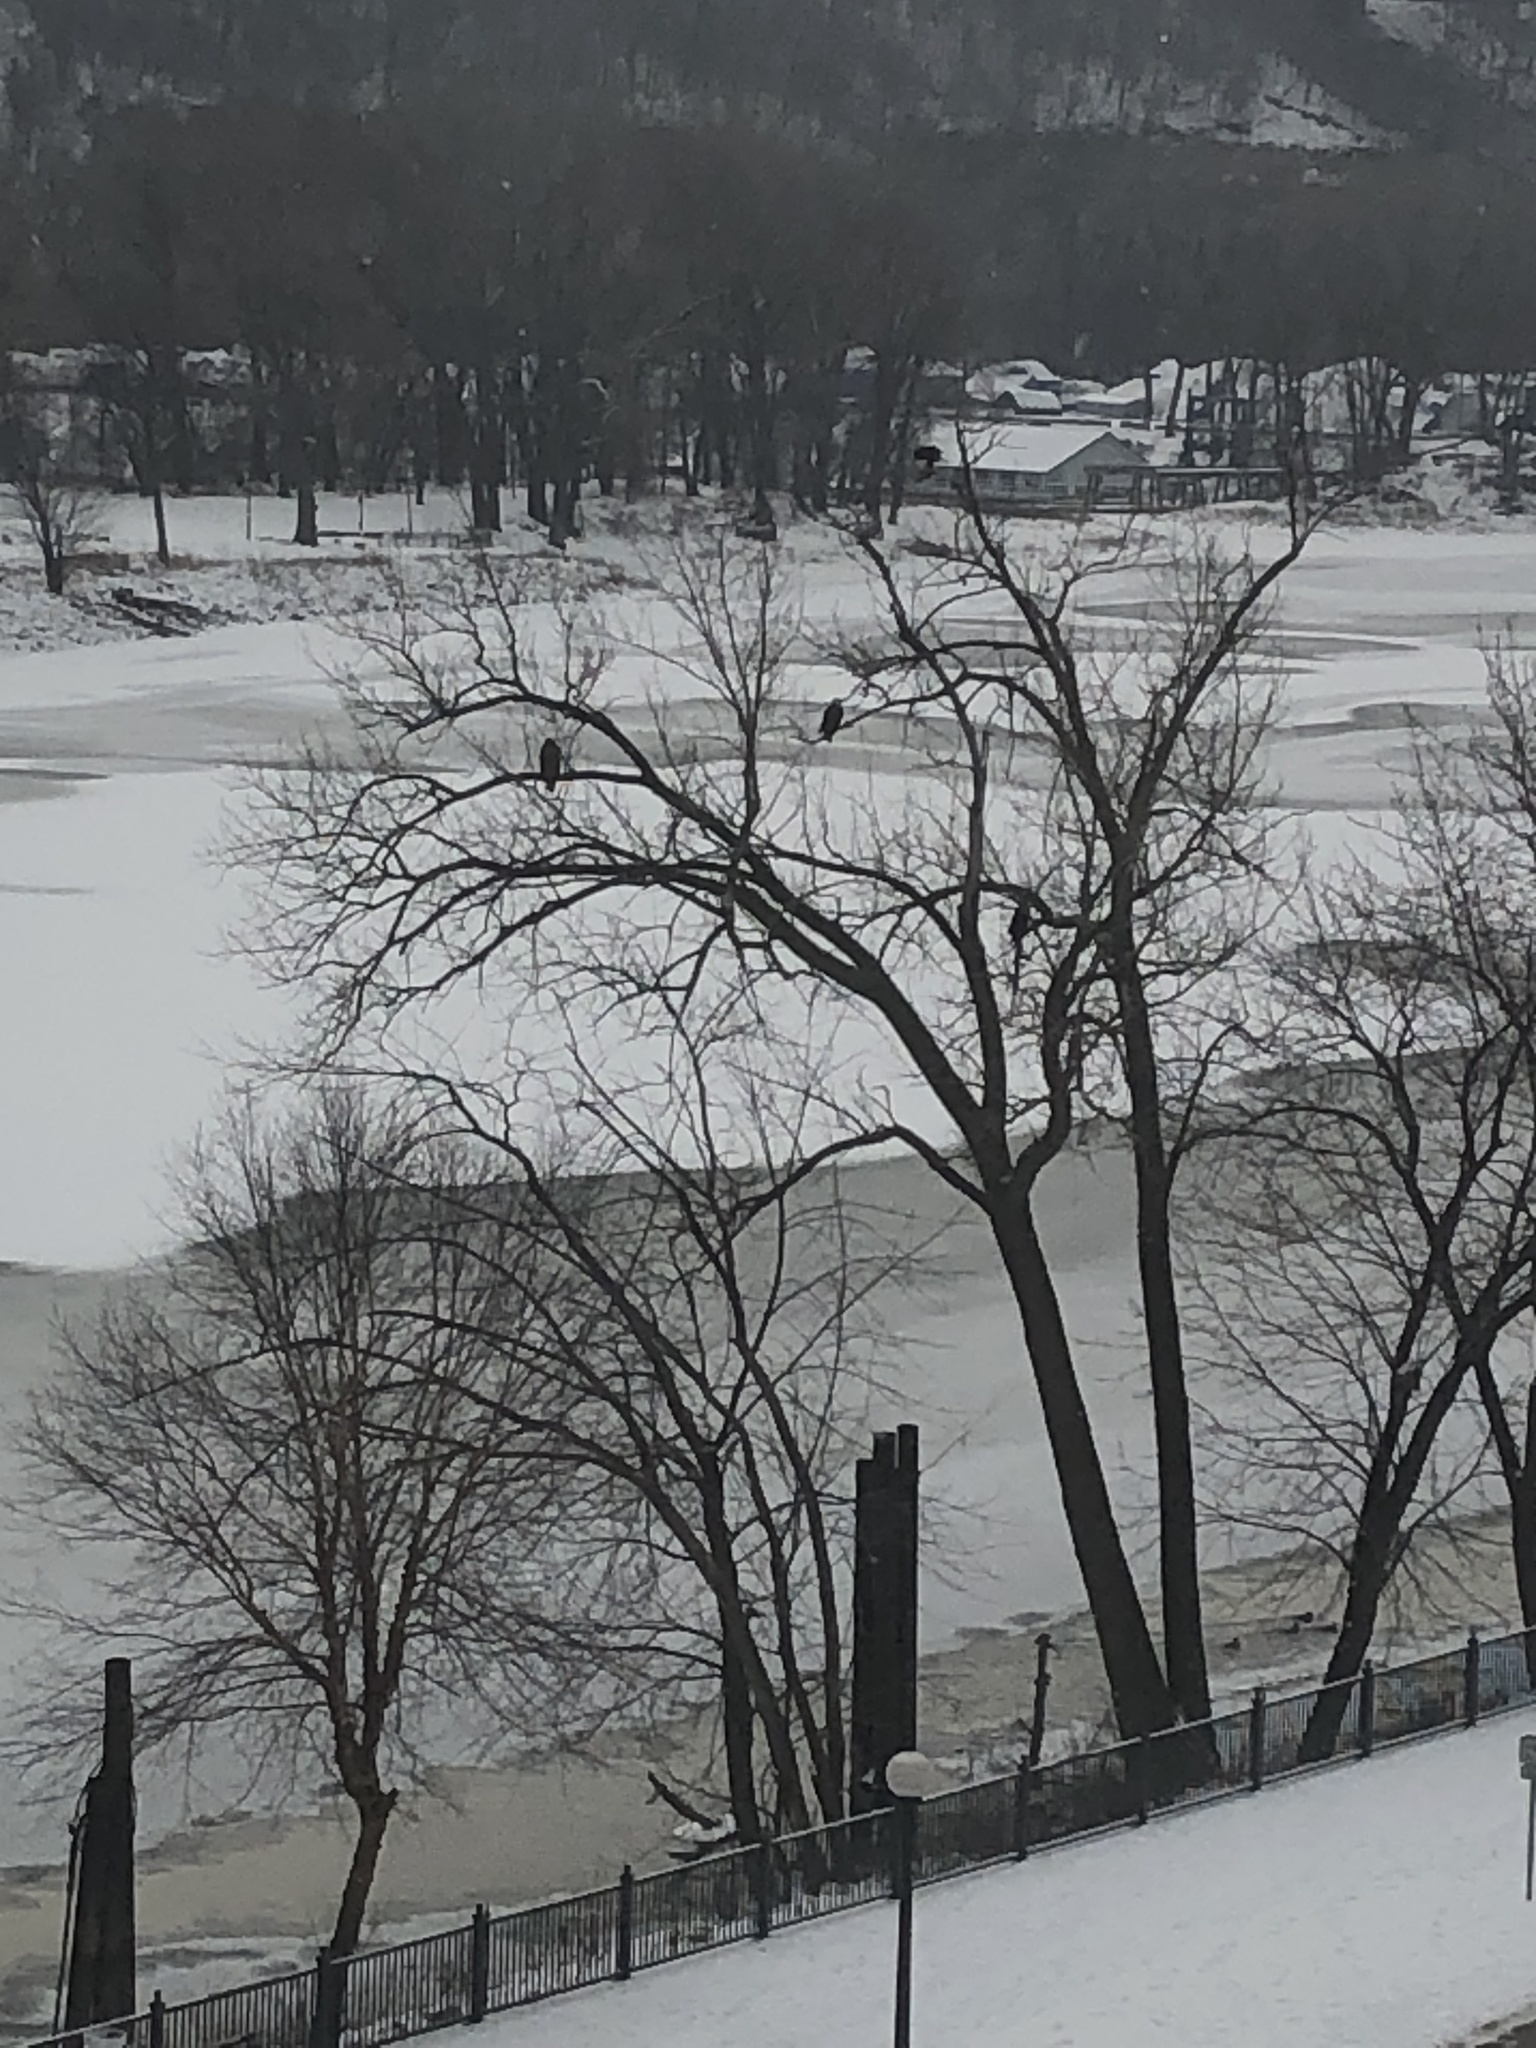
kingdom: Animalia
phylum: Chordata
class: Aves
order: Accipitriformes
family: Accipitridae
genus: Haliaeetus
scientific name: Haliaeetus leucocephalus
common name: Bald eagle
